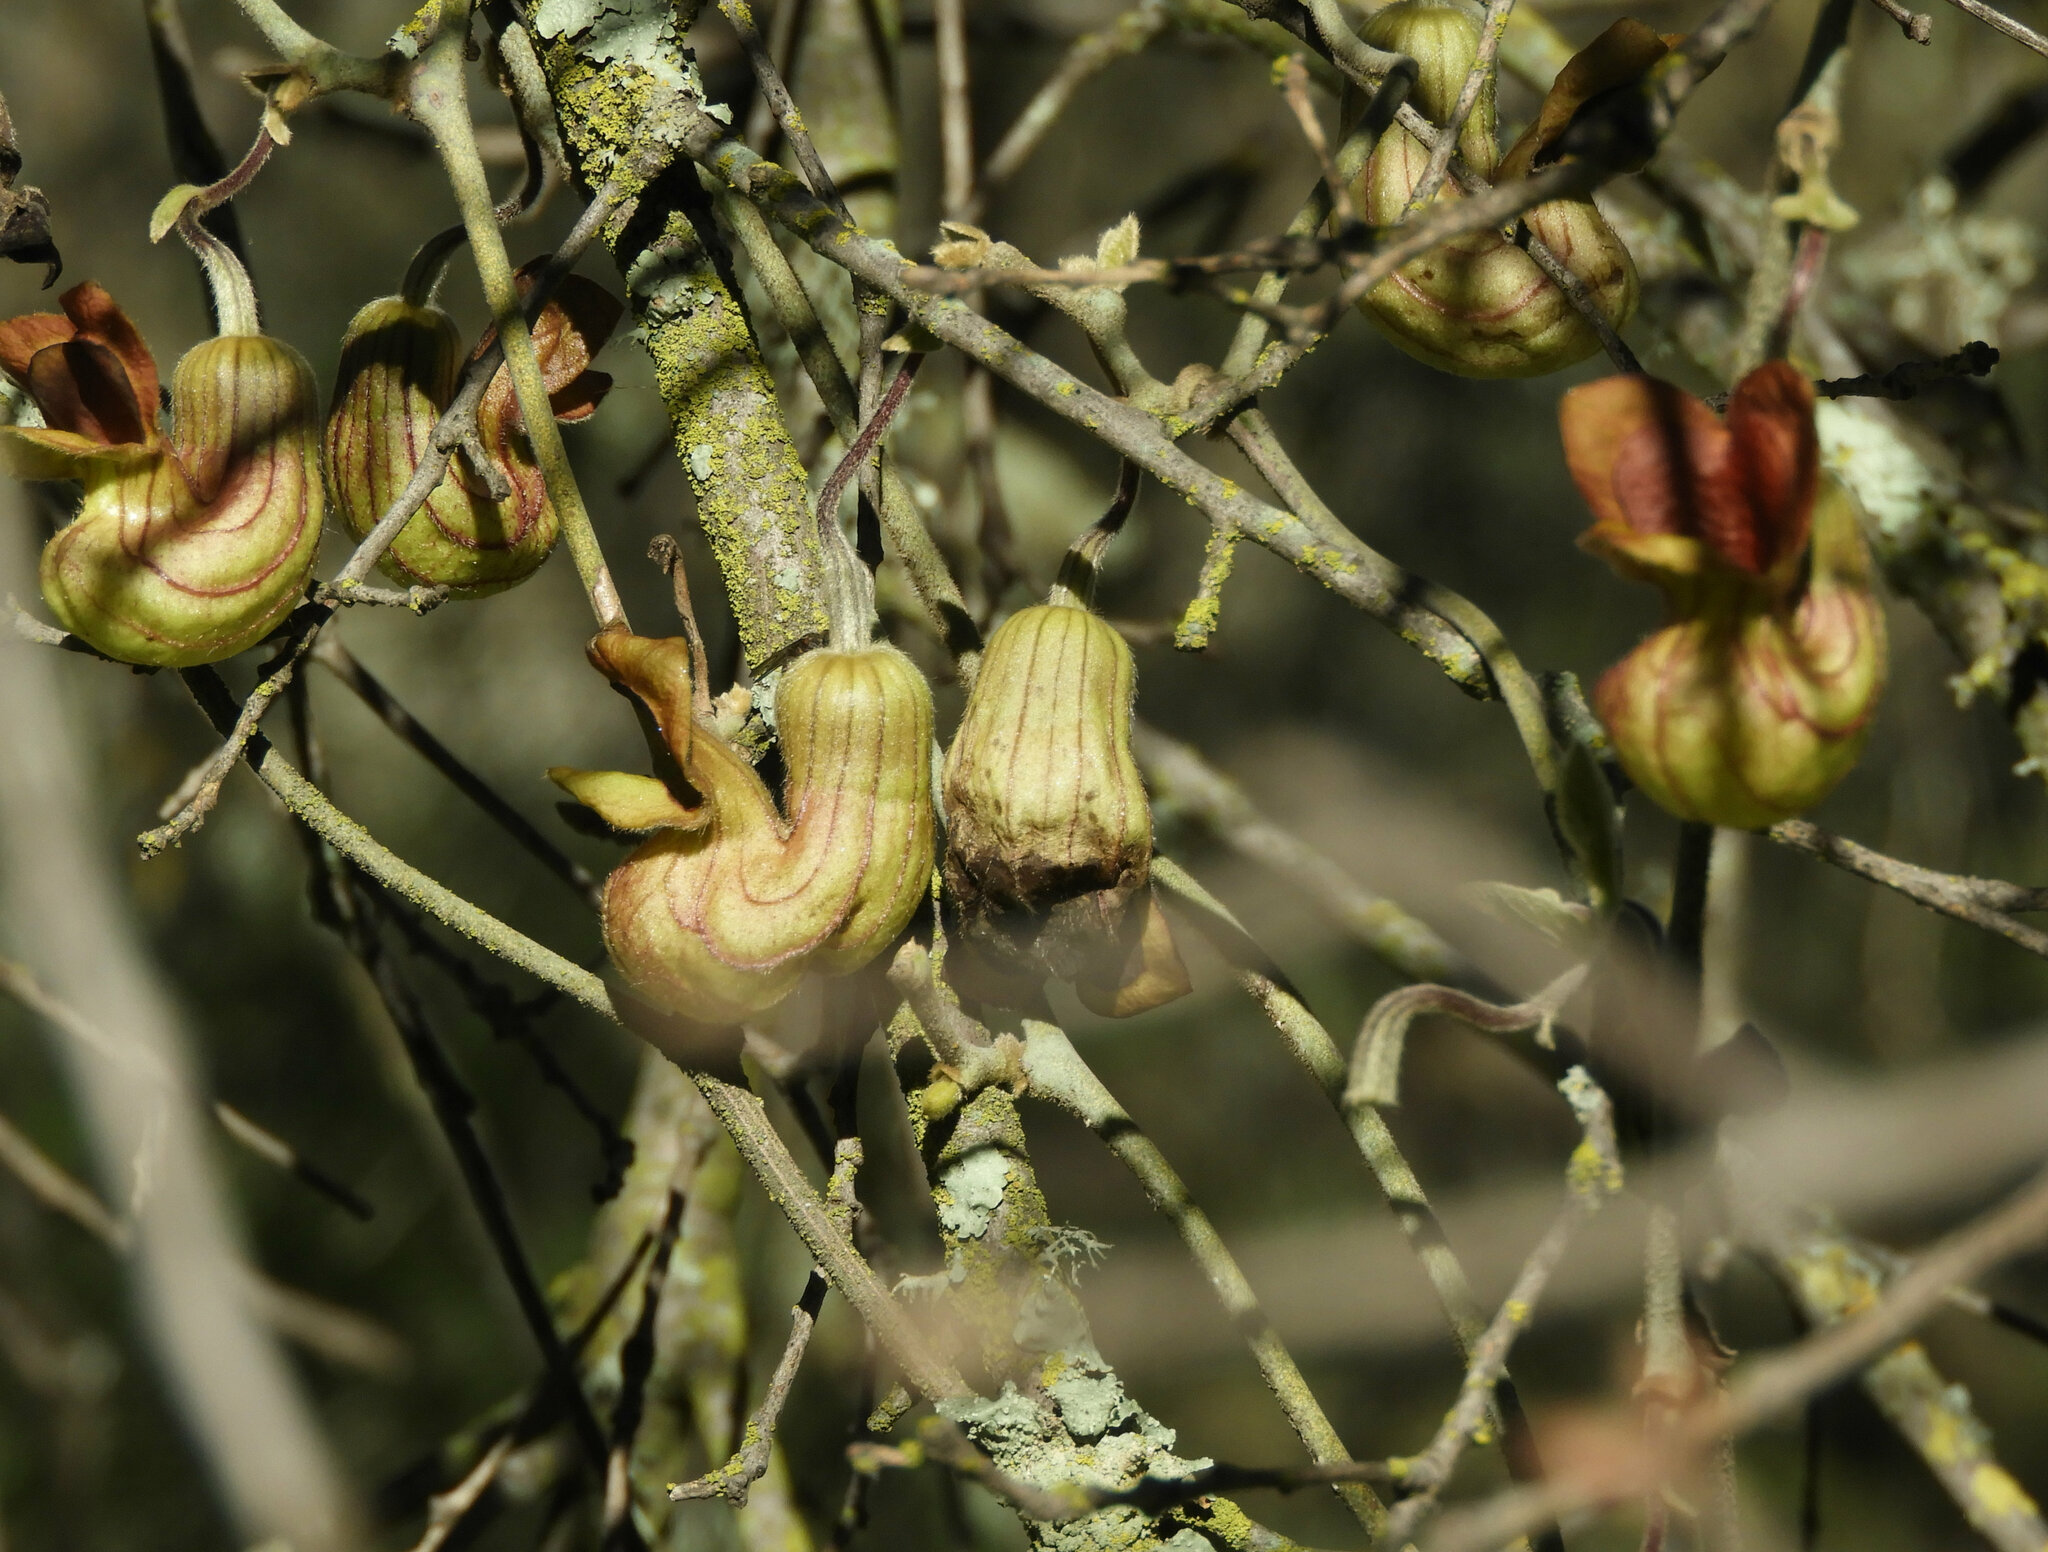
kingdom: Plantae
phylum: Tracheophyta
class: Magnoliopsida
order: Piperales
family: Aristolochiaceae
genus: Isotrema
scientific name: Isotrema californicum
